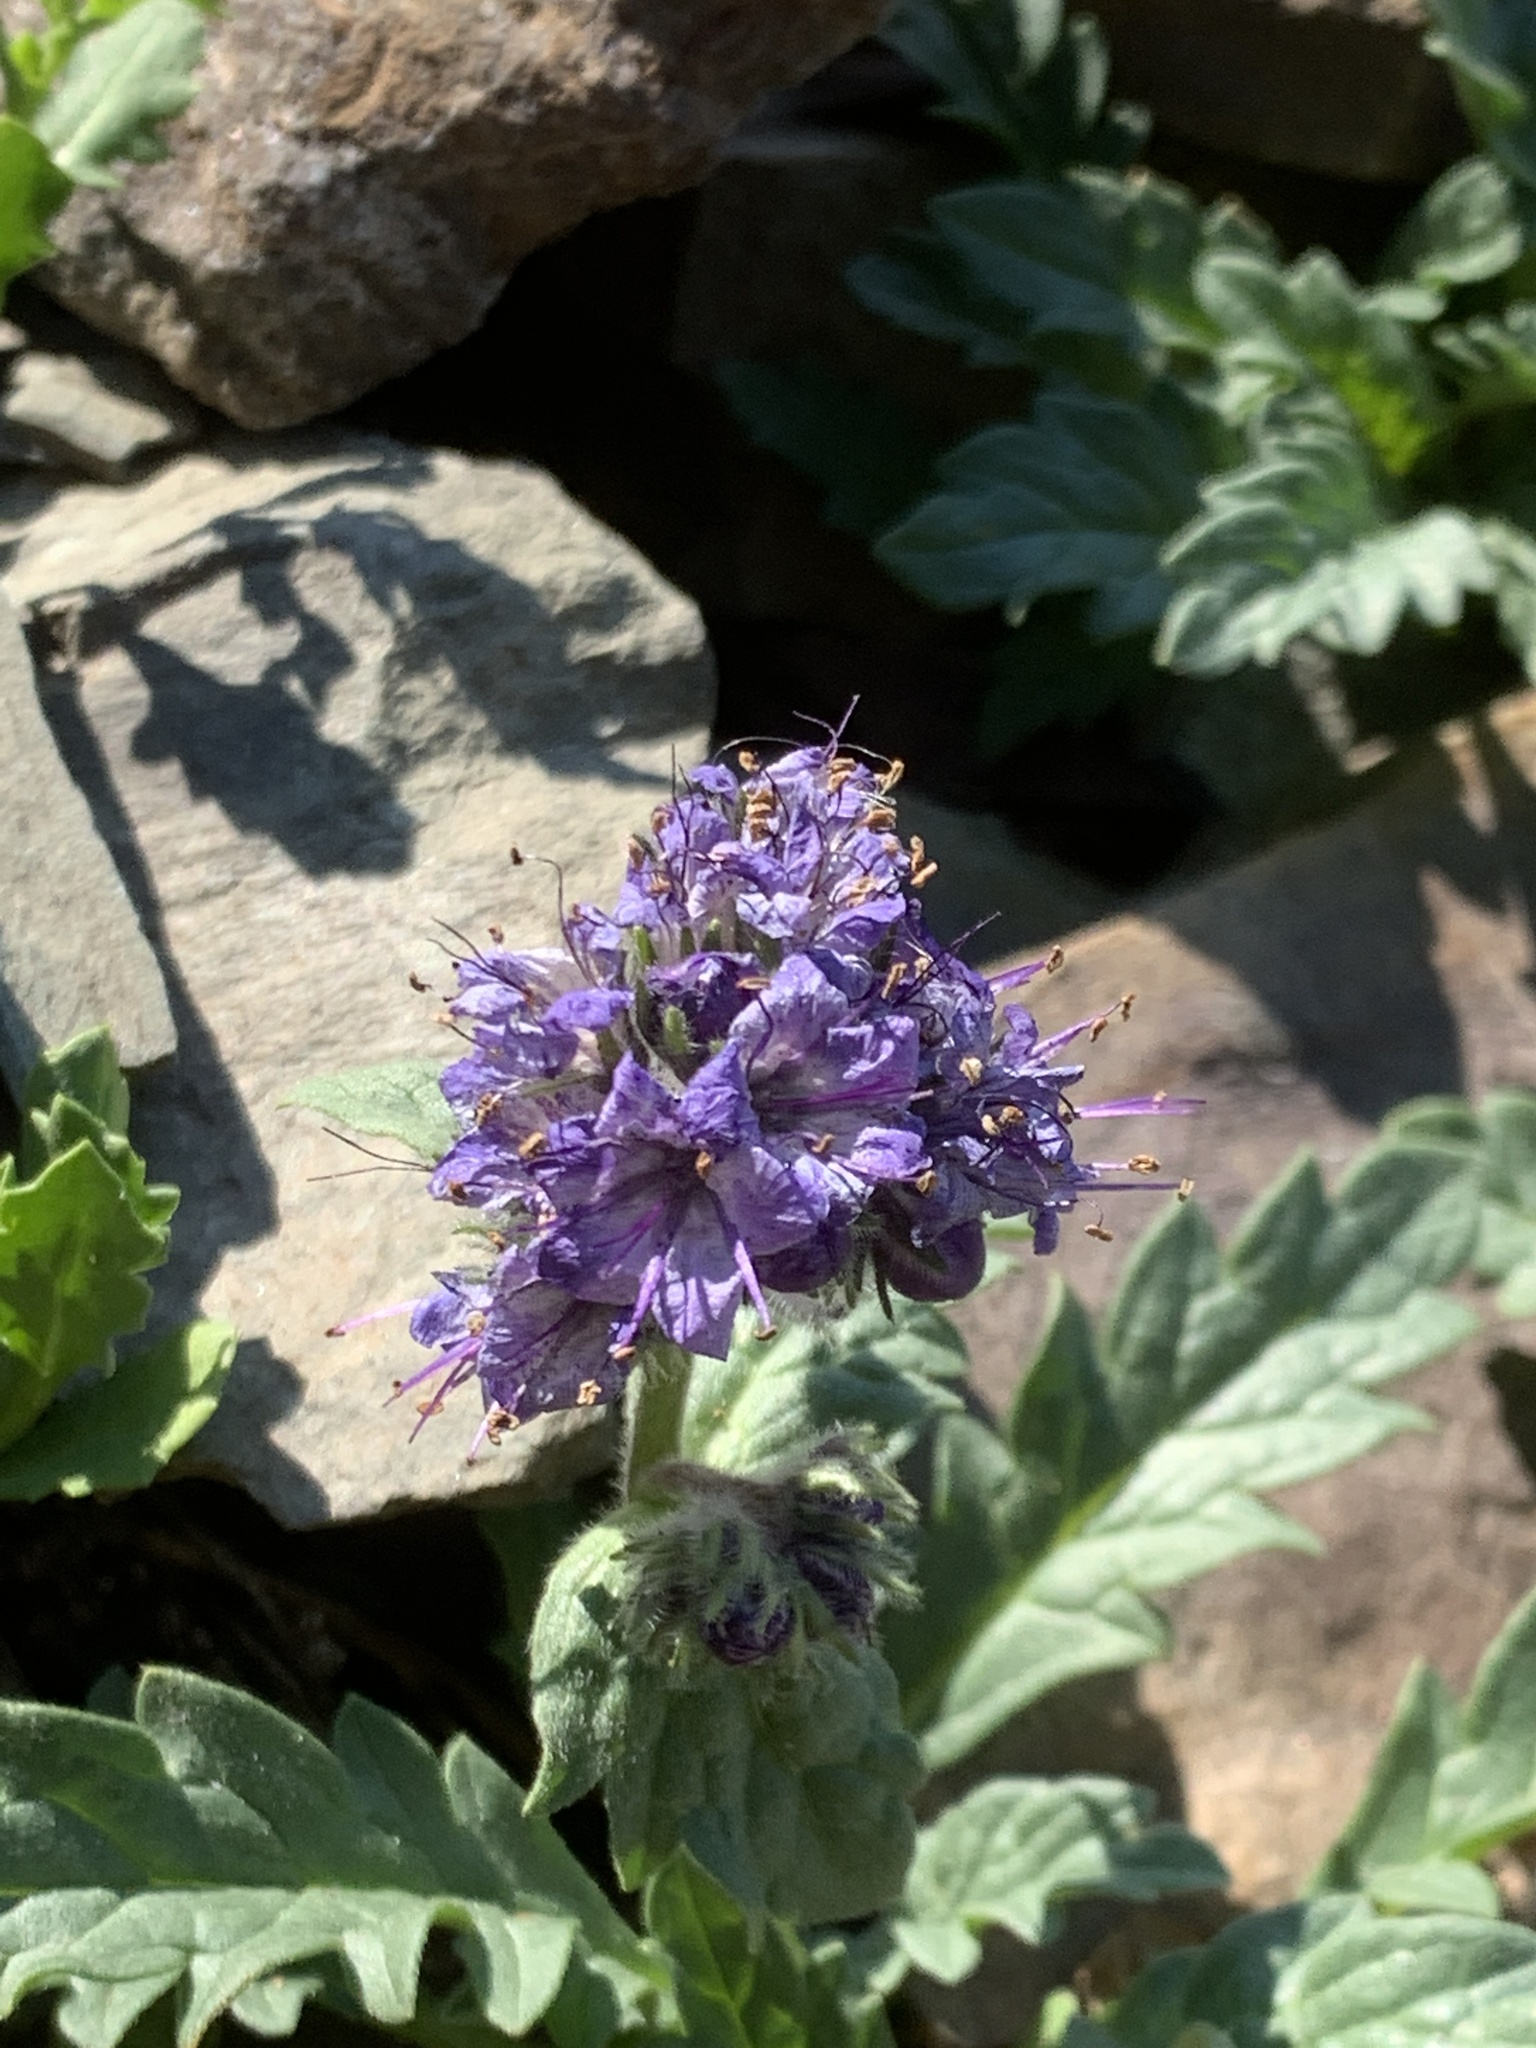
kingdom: Plantae
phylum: Tracheophyta
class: Magnoliopsida
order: Boraginales
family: Hydrophyllaceae
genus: Phacelia
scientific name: Phacelia lyallii
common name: Lyall's phacelia
